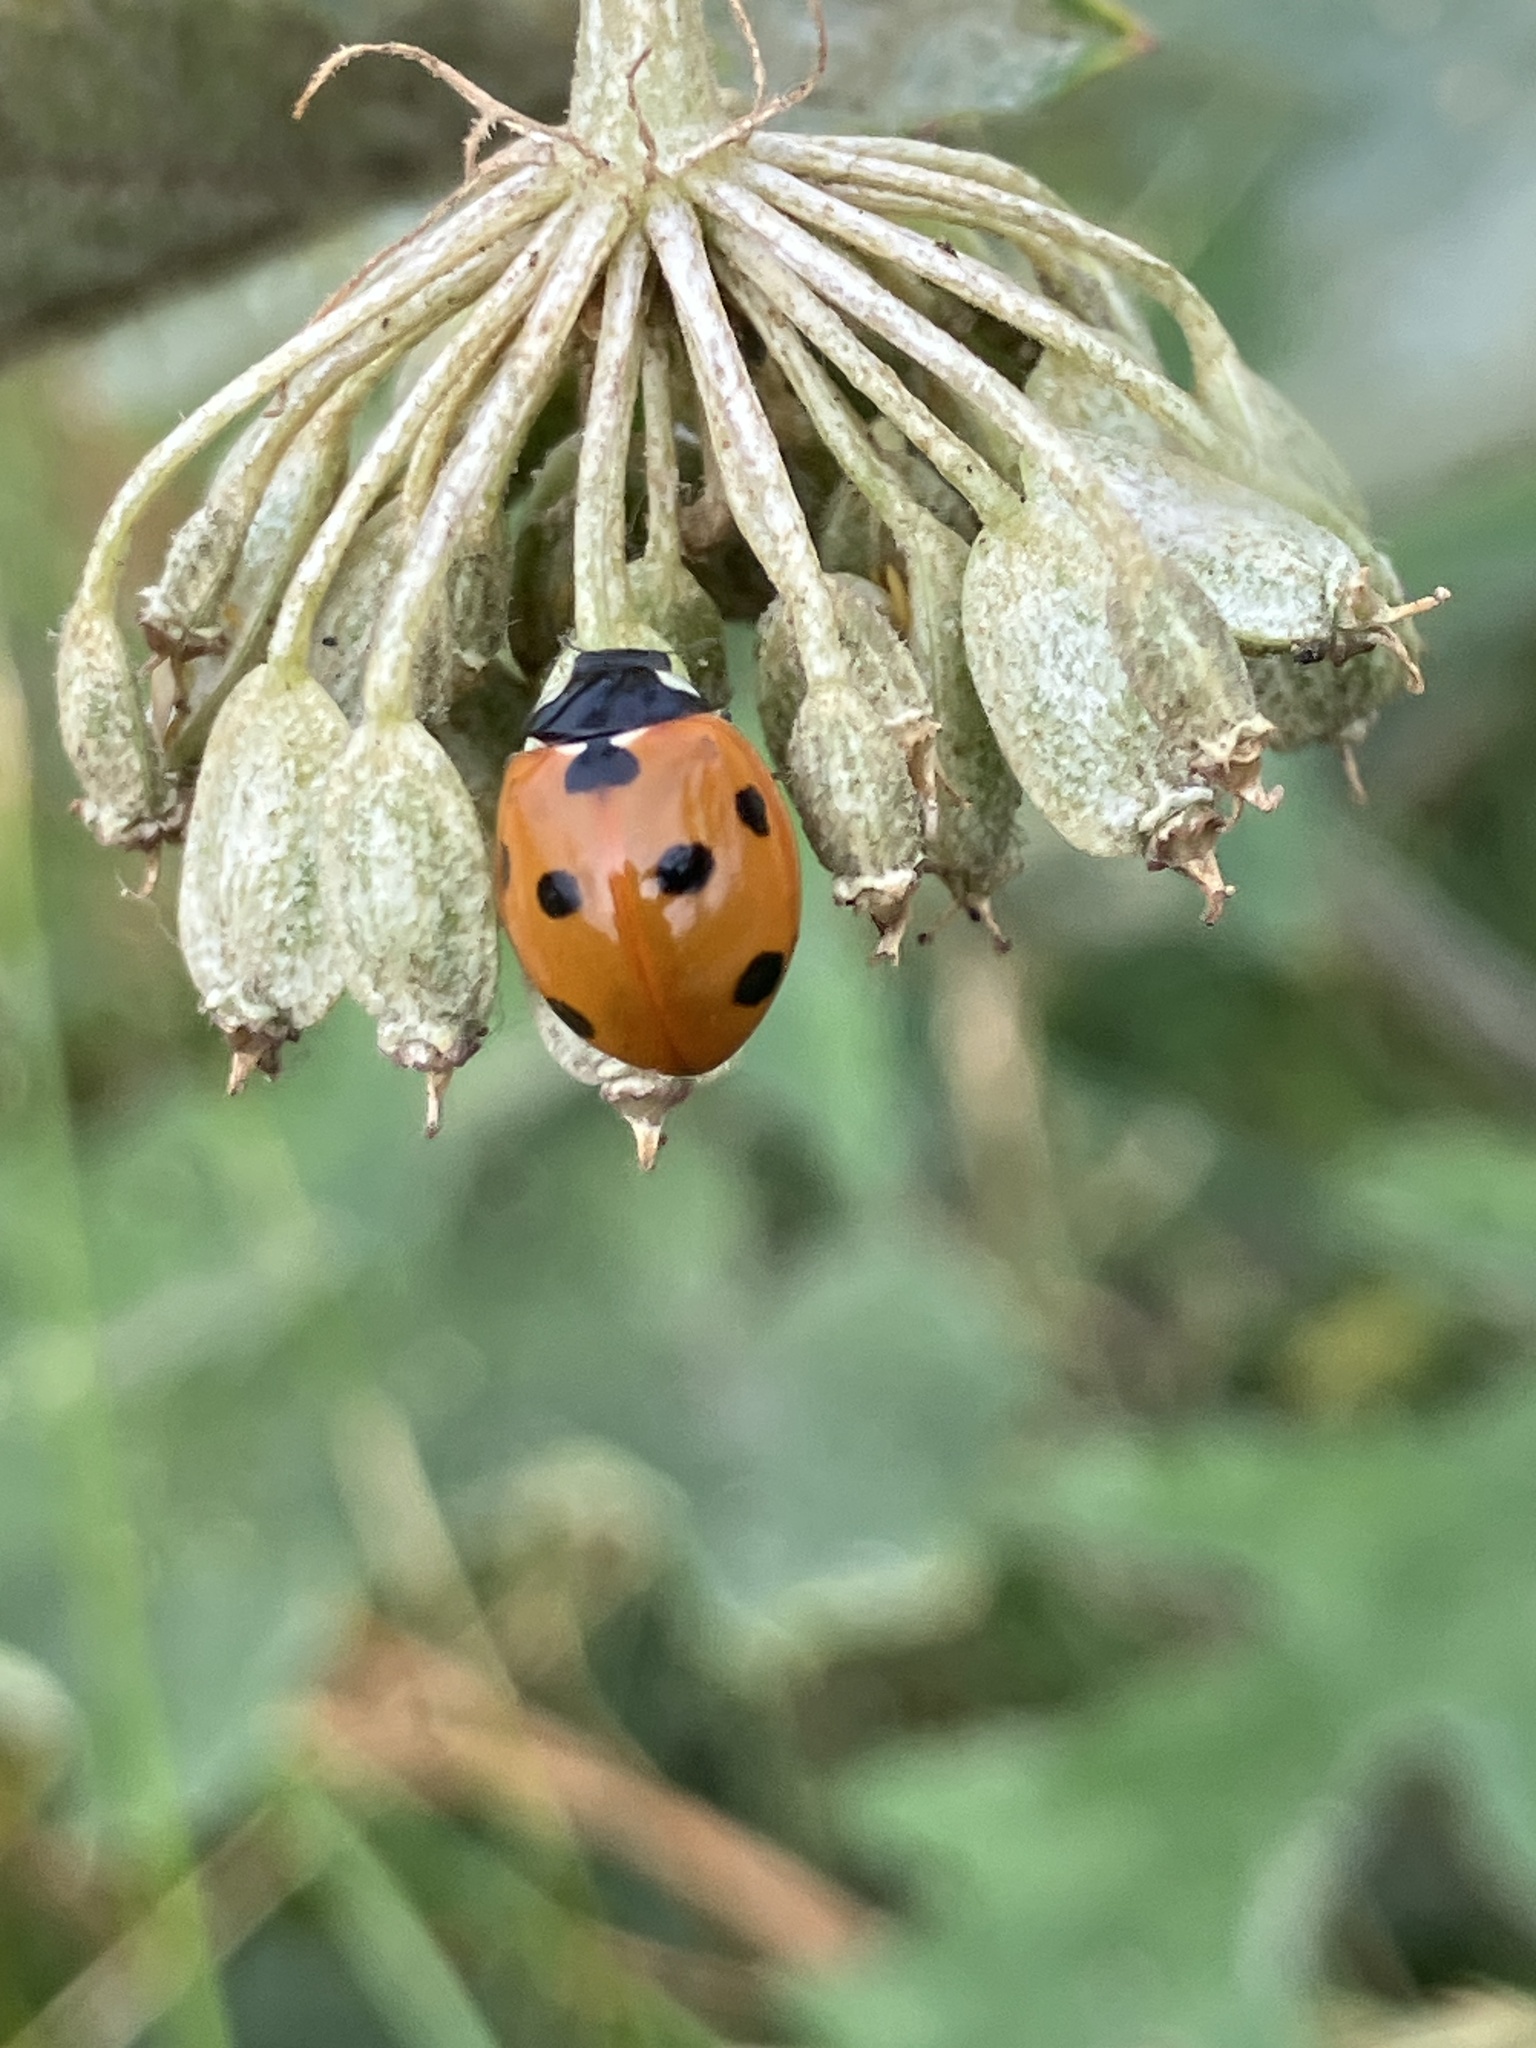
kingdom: Animalia
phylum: Arthropoda
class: Insecta
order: Coleoptera
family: Coccinellidae
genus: Coccinella
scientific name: Coccinella septempunctata
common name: Sevenspotted lady beetle
